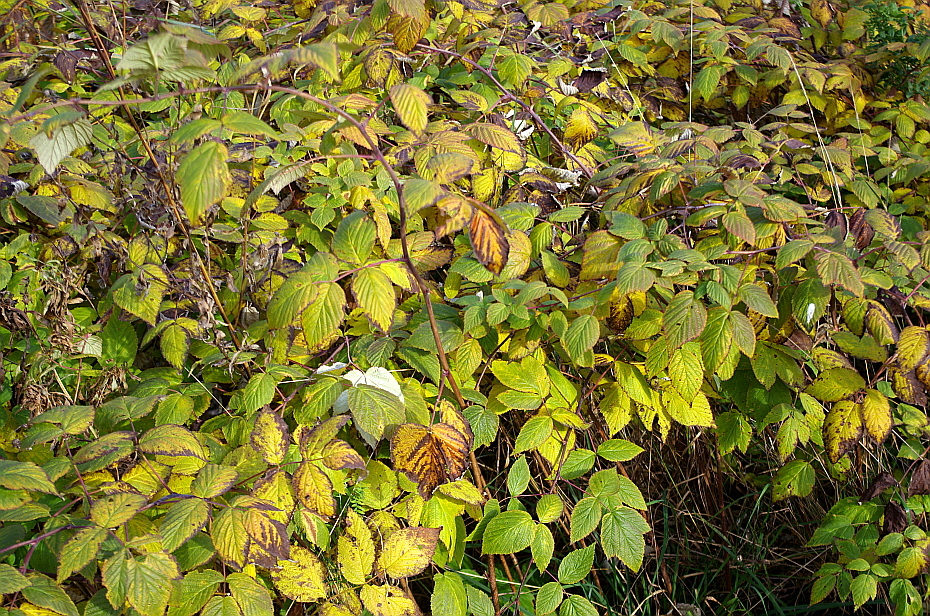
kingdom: Plantae
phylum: Tracheophyta
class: Magnoliopsida
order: Rosales
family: Rosaceae
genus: Rubus
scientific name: Rubus idaeus
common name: Raspberry
